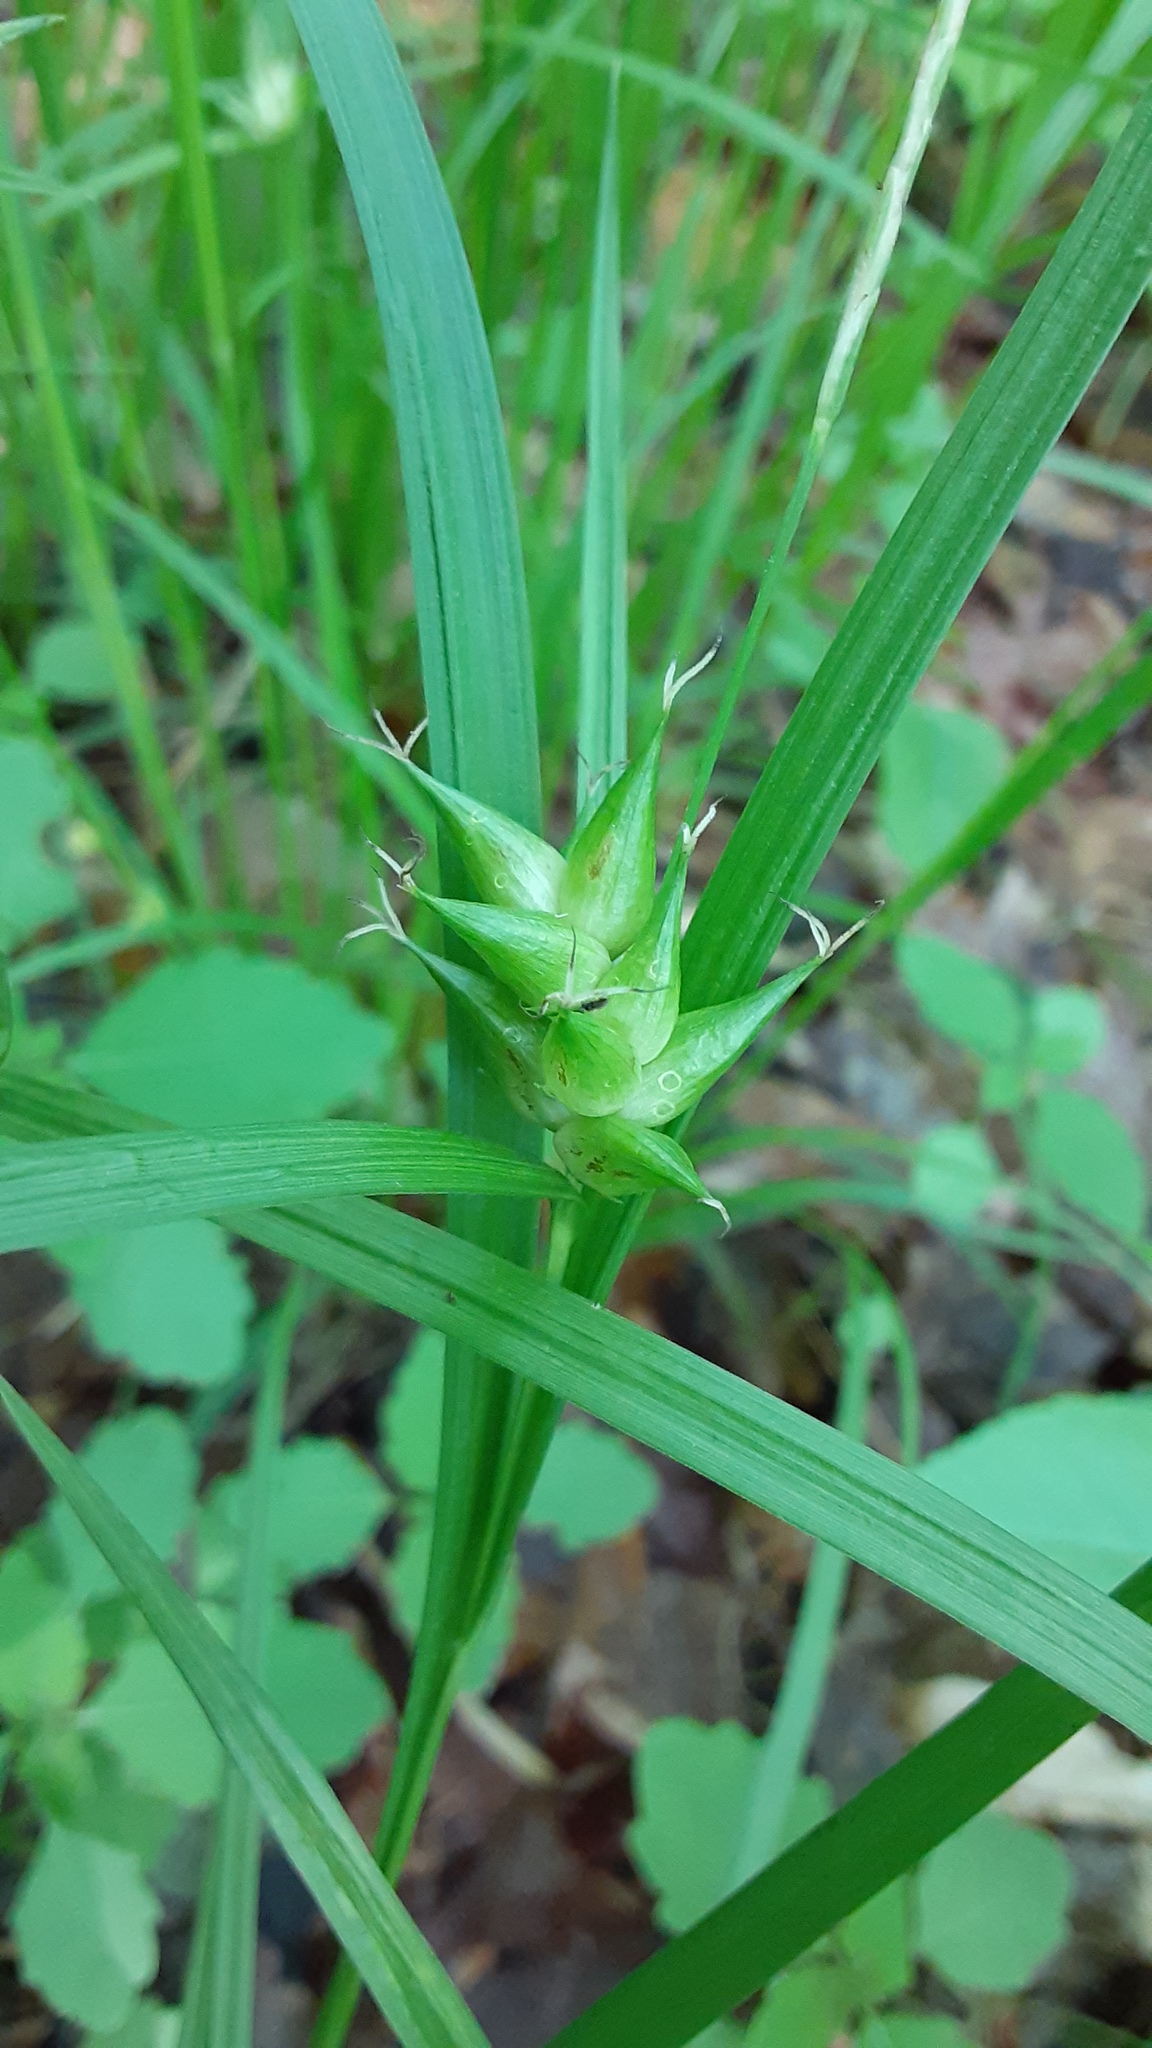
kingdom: Plantae
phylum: Tracheophyta
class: Liliopsida
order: Poales
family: Cyperaceae
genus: Carex
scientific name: Carex intumescens
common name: Greater bladder sedge
